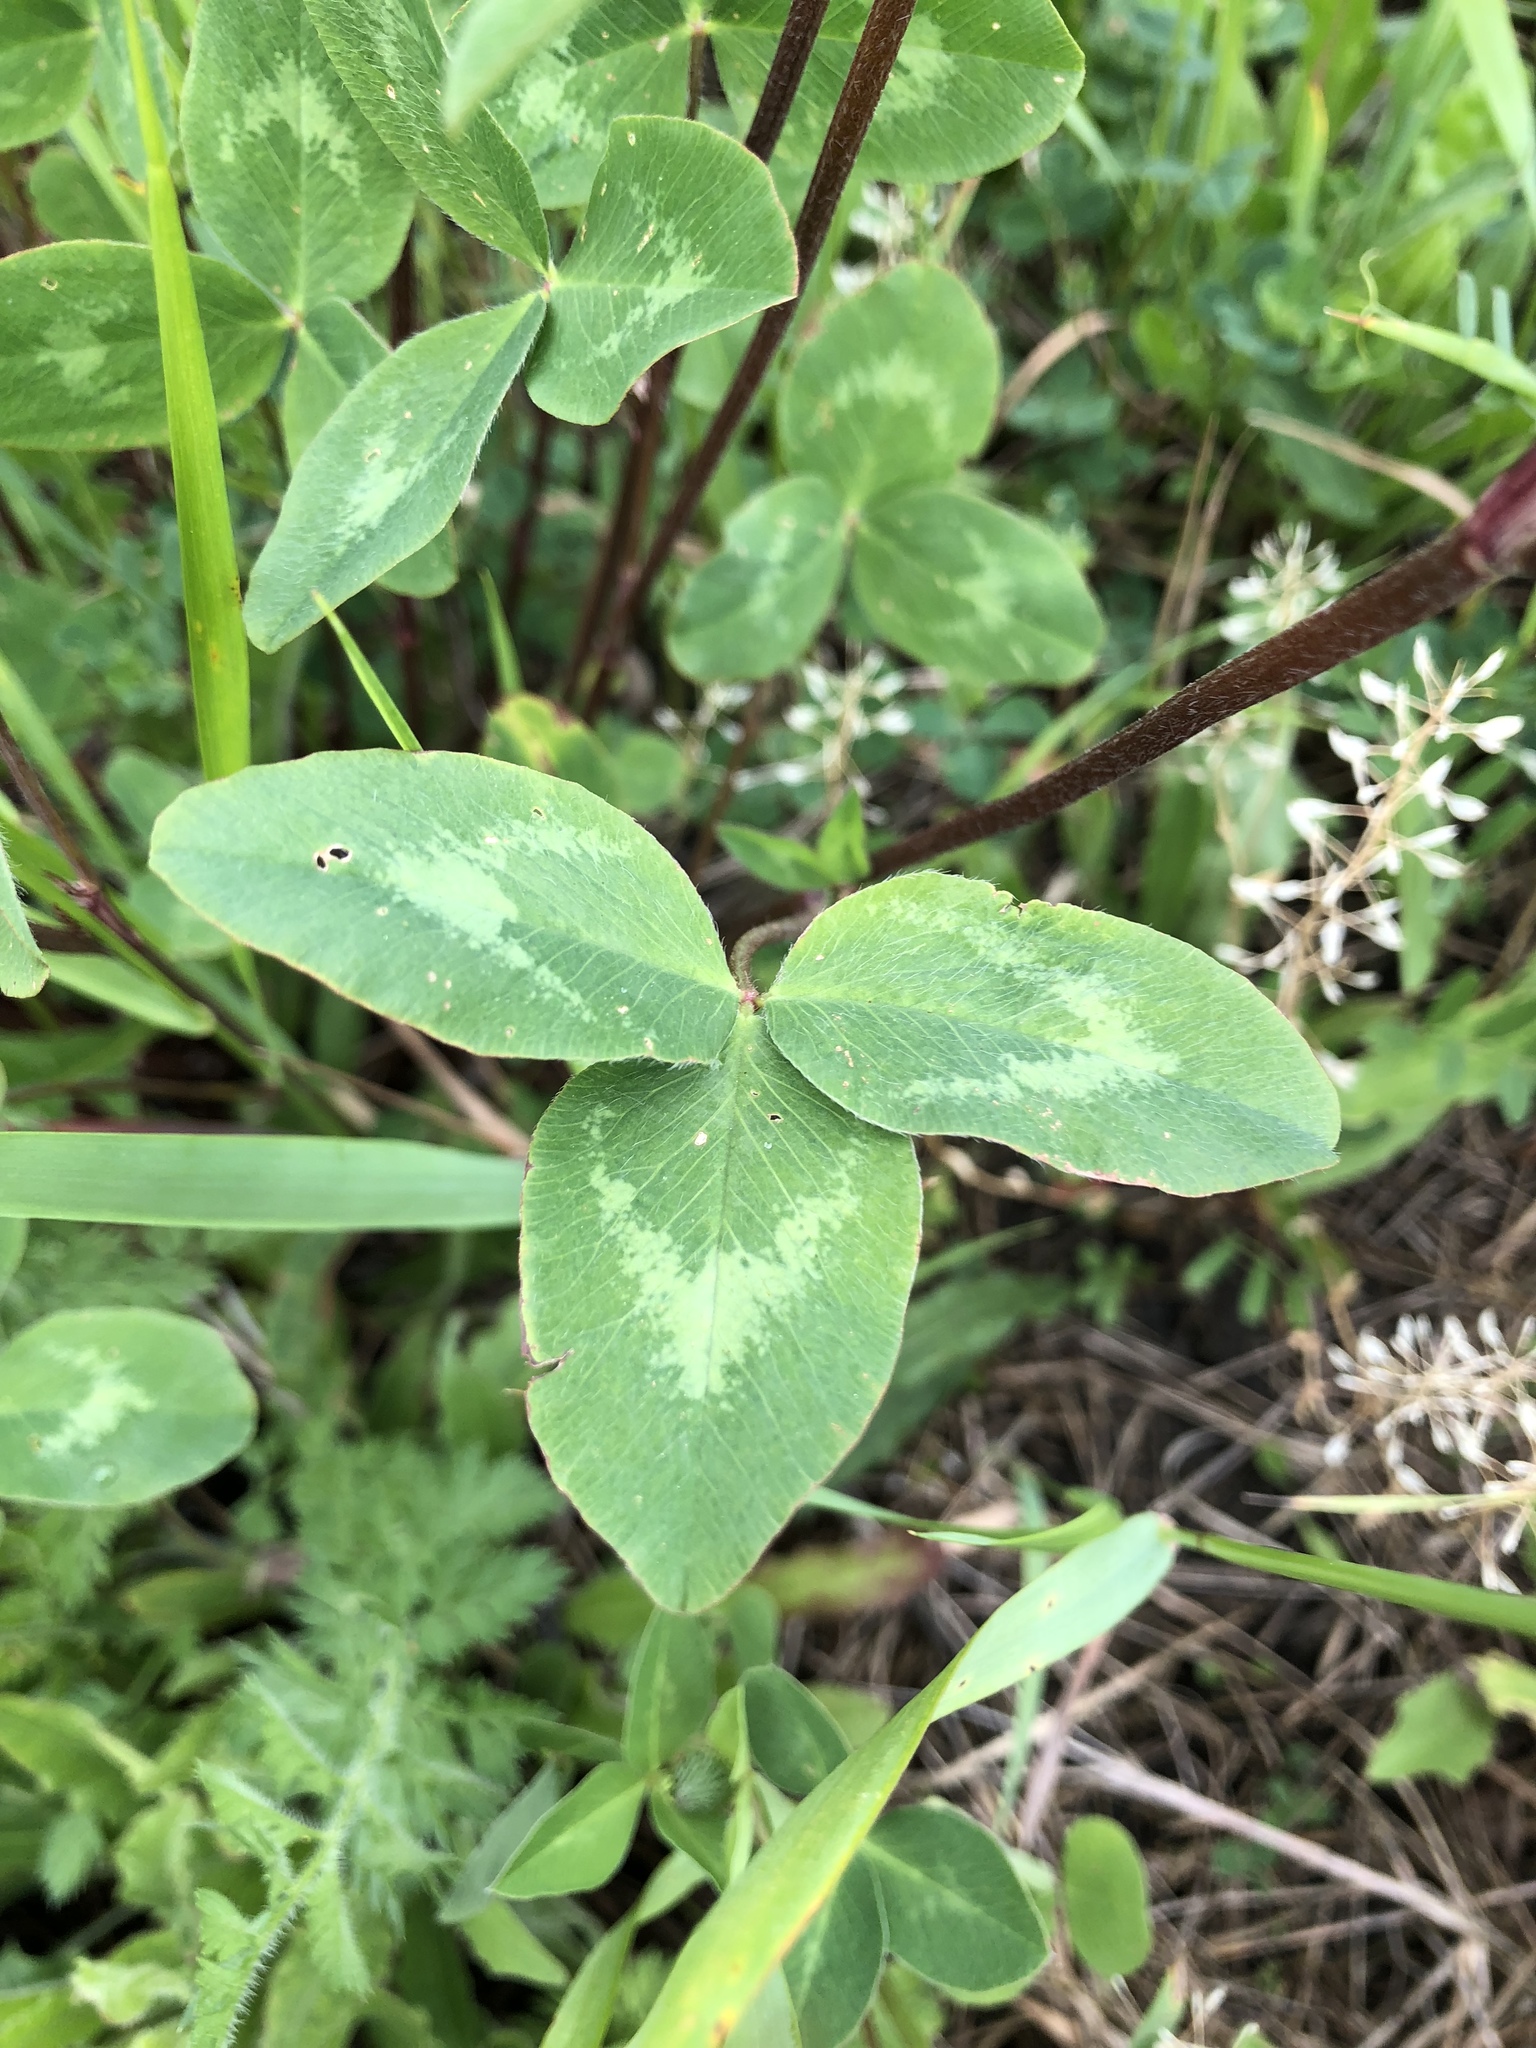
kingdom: Plantae
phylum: Tracheophyta
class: Magnoliopsida
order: Fabales
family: Fabaceae
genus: Trifolium
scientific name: Trifolium pratense
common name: Red clover
